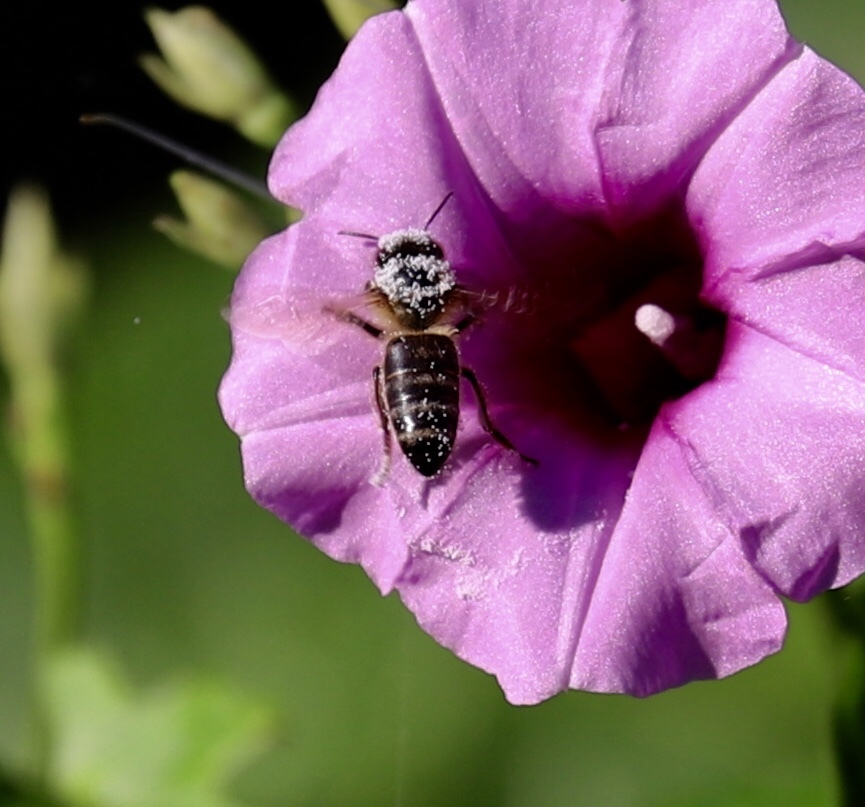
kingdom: Animalia
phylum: Arthropoda
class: Insecta
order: Hymenoptera
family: Apidae
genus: Apis
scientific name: Apis mellifera
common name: Honey bee
